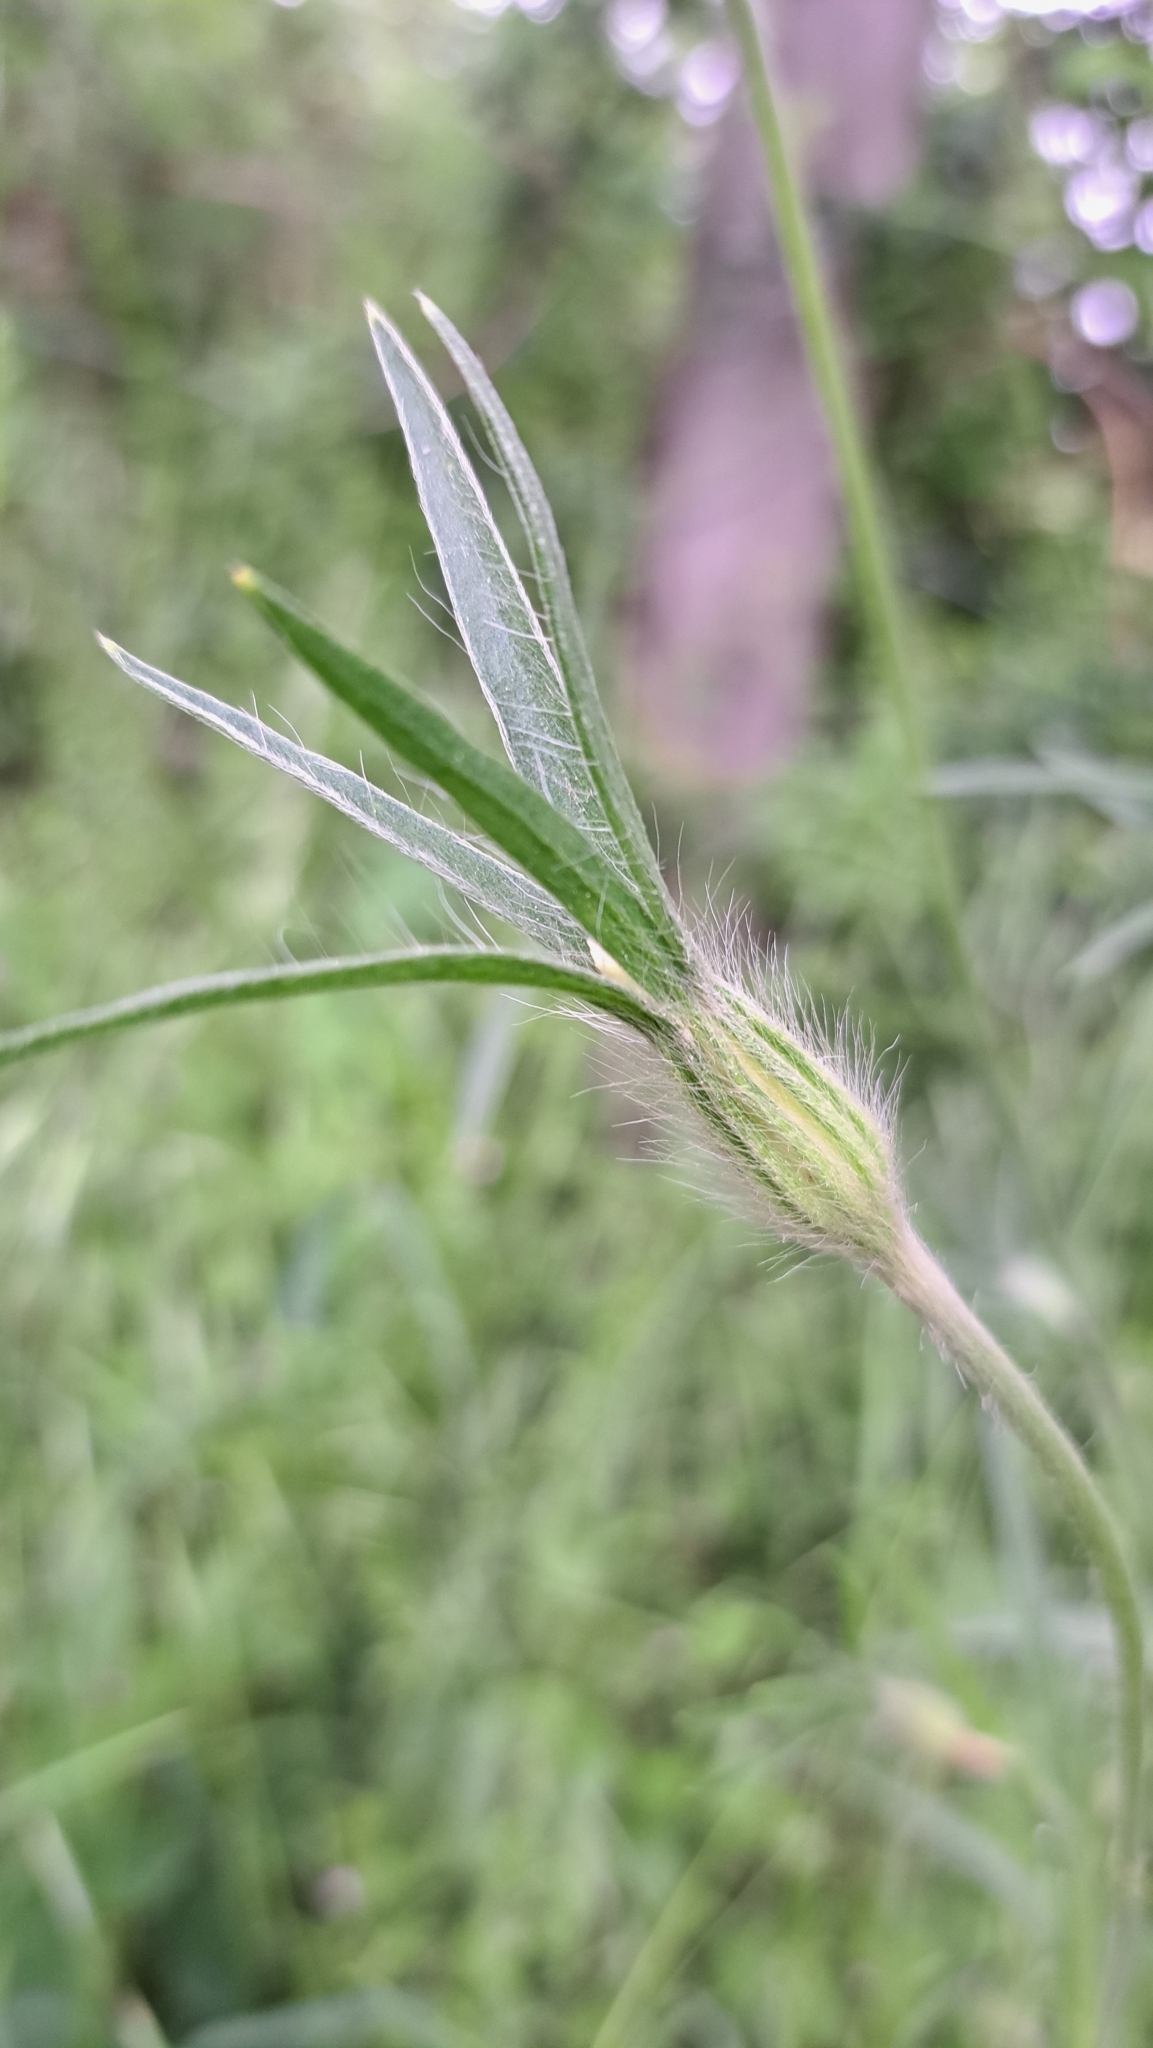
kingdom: Plantae
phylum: Tracheophyta
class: Magnoliopsida
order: Caryophyllales
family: Caryophyllaceae
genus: Agrostemma
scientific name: Agrostemma githago
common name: Common corncockle
